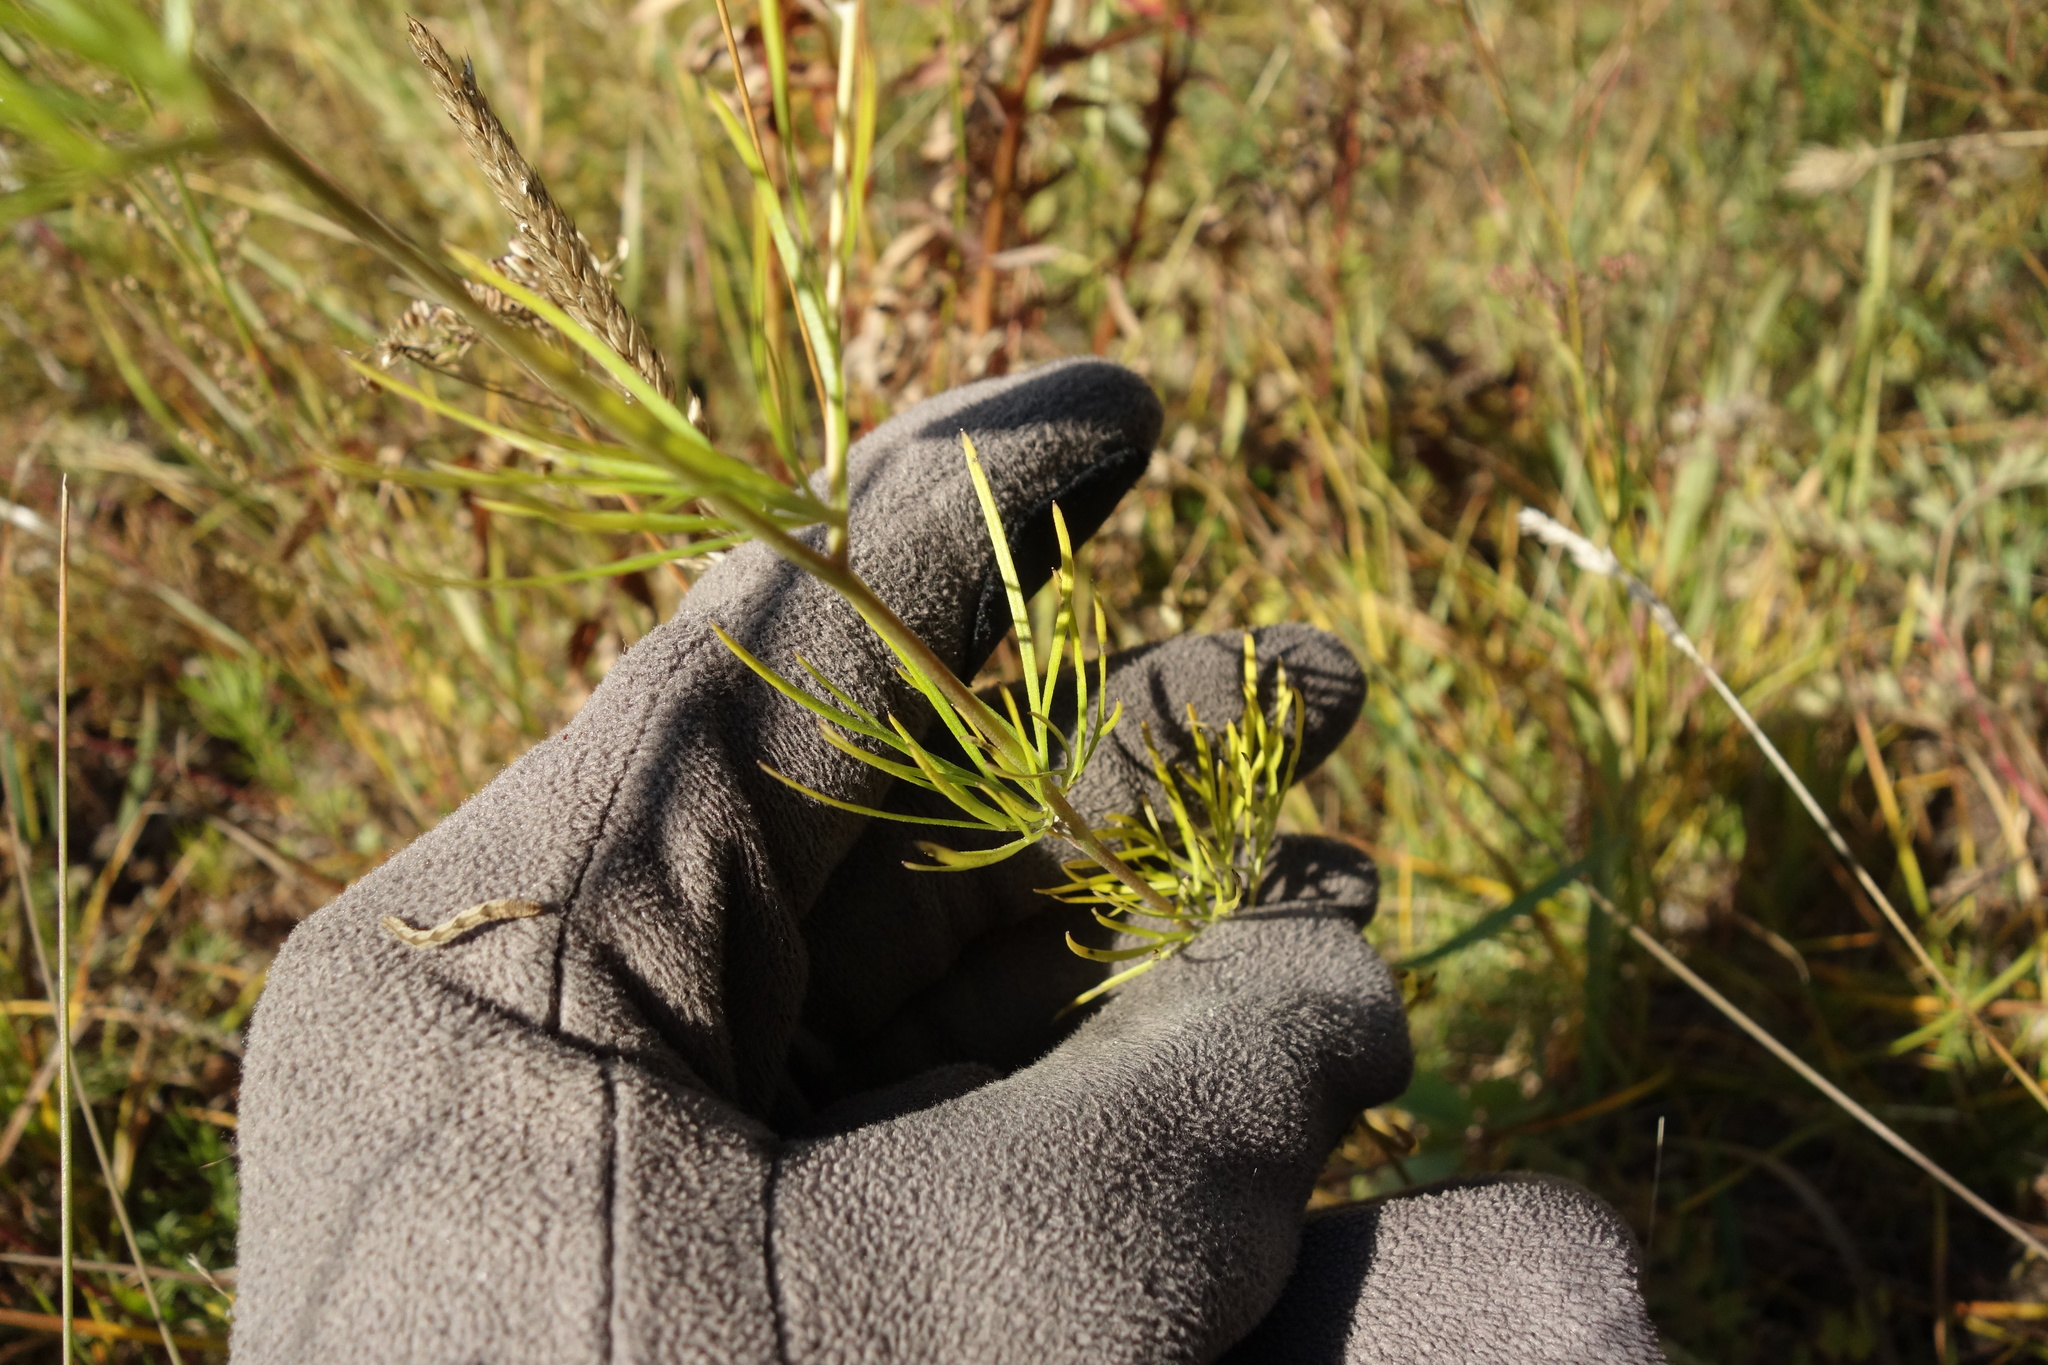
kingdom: Plantae
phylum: Tracheophyta
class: Magnoliopsida
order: Ranunculales
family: Ranunculaceae
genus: Delphinium
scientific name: Delphinium grandiflorum
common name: Siberian larkspur
